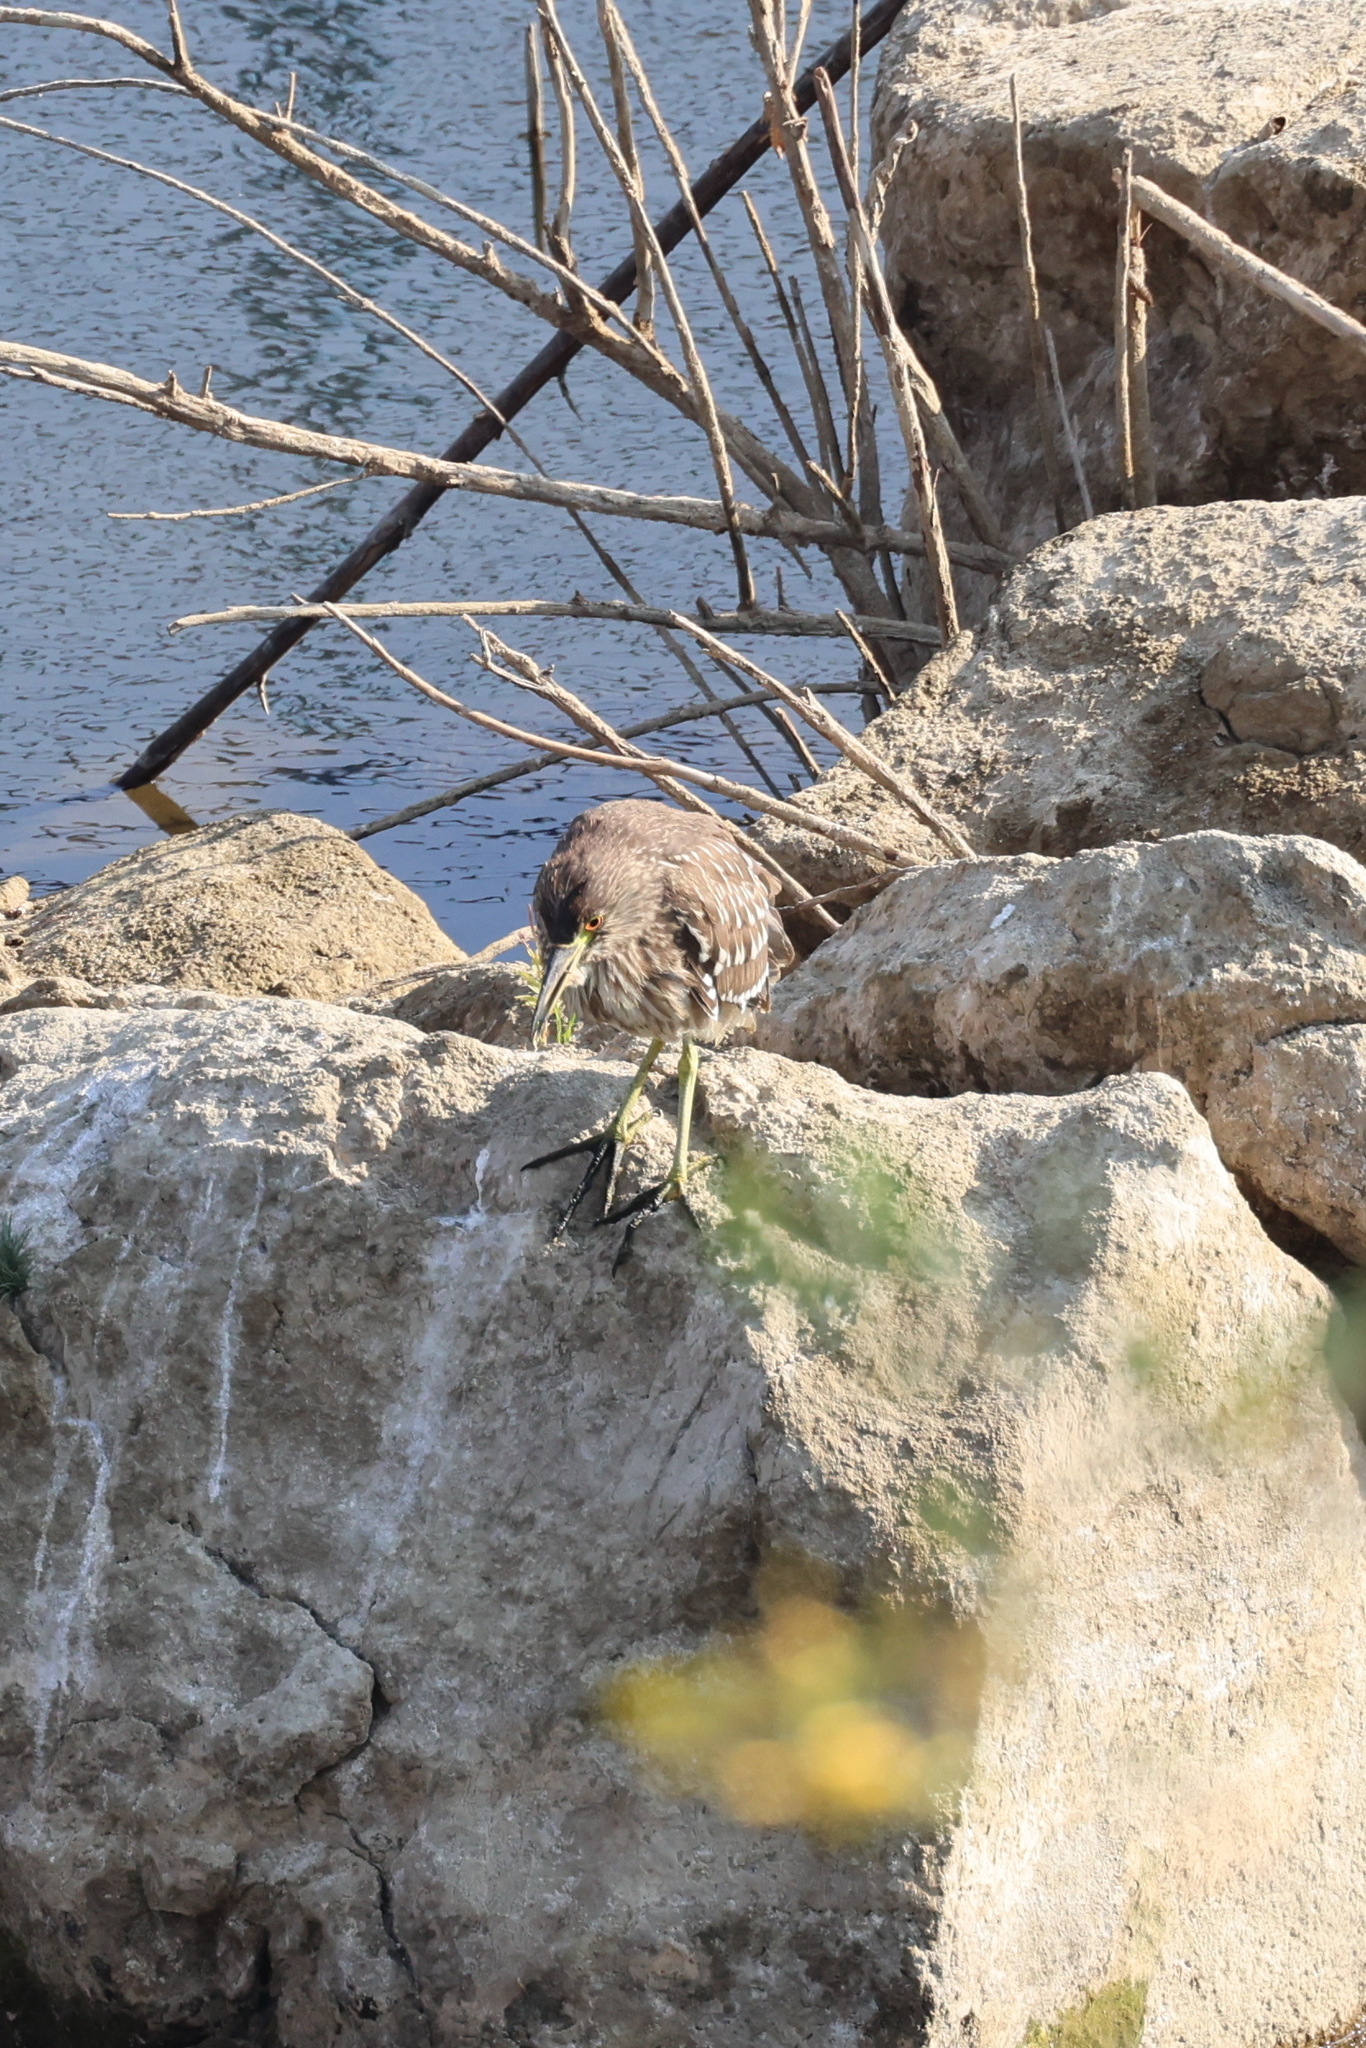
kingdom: Animalia
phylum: Chordata
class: Aves
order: Pelecaniformes
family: Ardeidae
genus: Nycticorax
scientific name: Nycticorax nycticorax
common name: Black-crowned night heron
